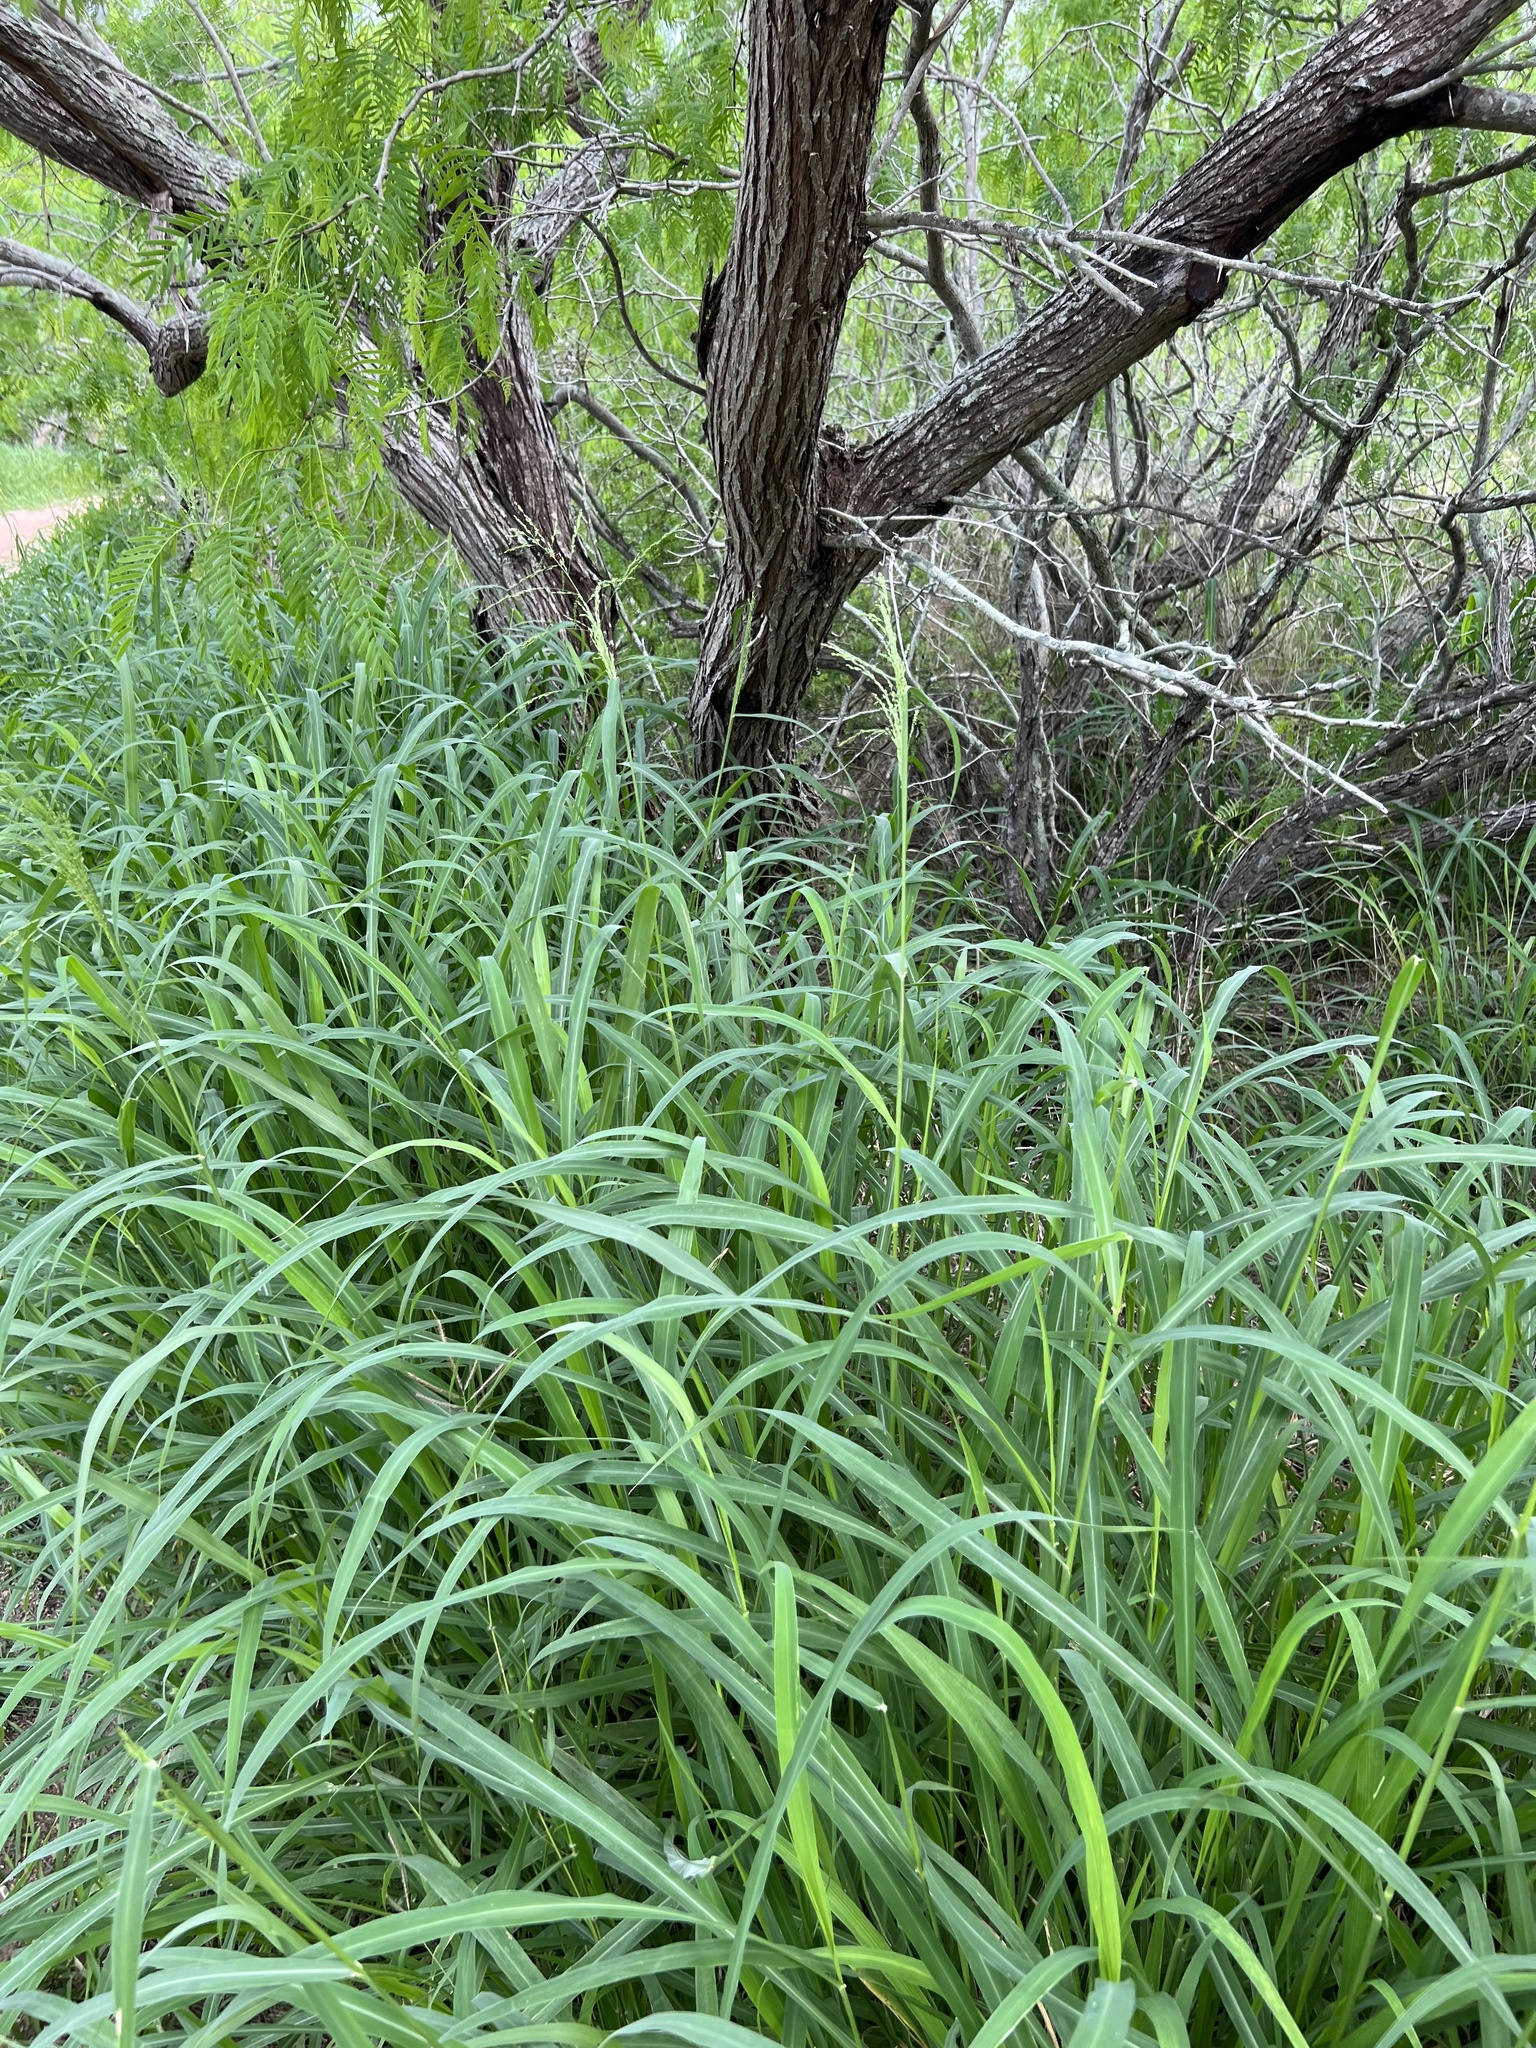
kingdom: Plantae
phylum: Tracheophyta
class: Liliopsida
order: Poales
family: Poaceae
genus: Megathyrsus
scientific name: Megathyrsus maximus
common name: Guineagrass
